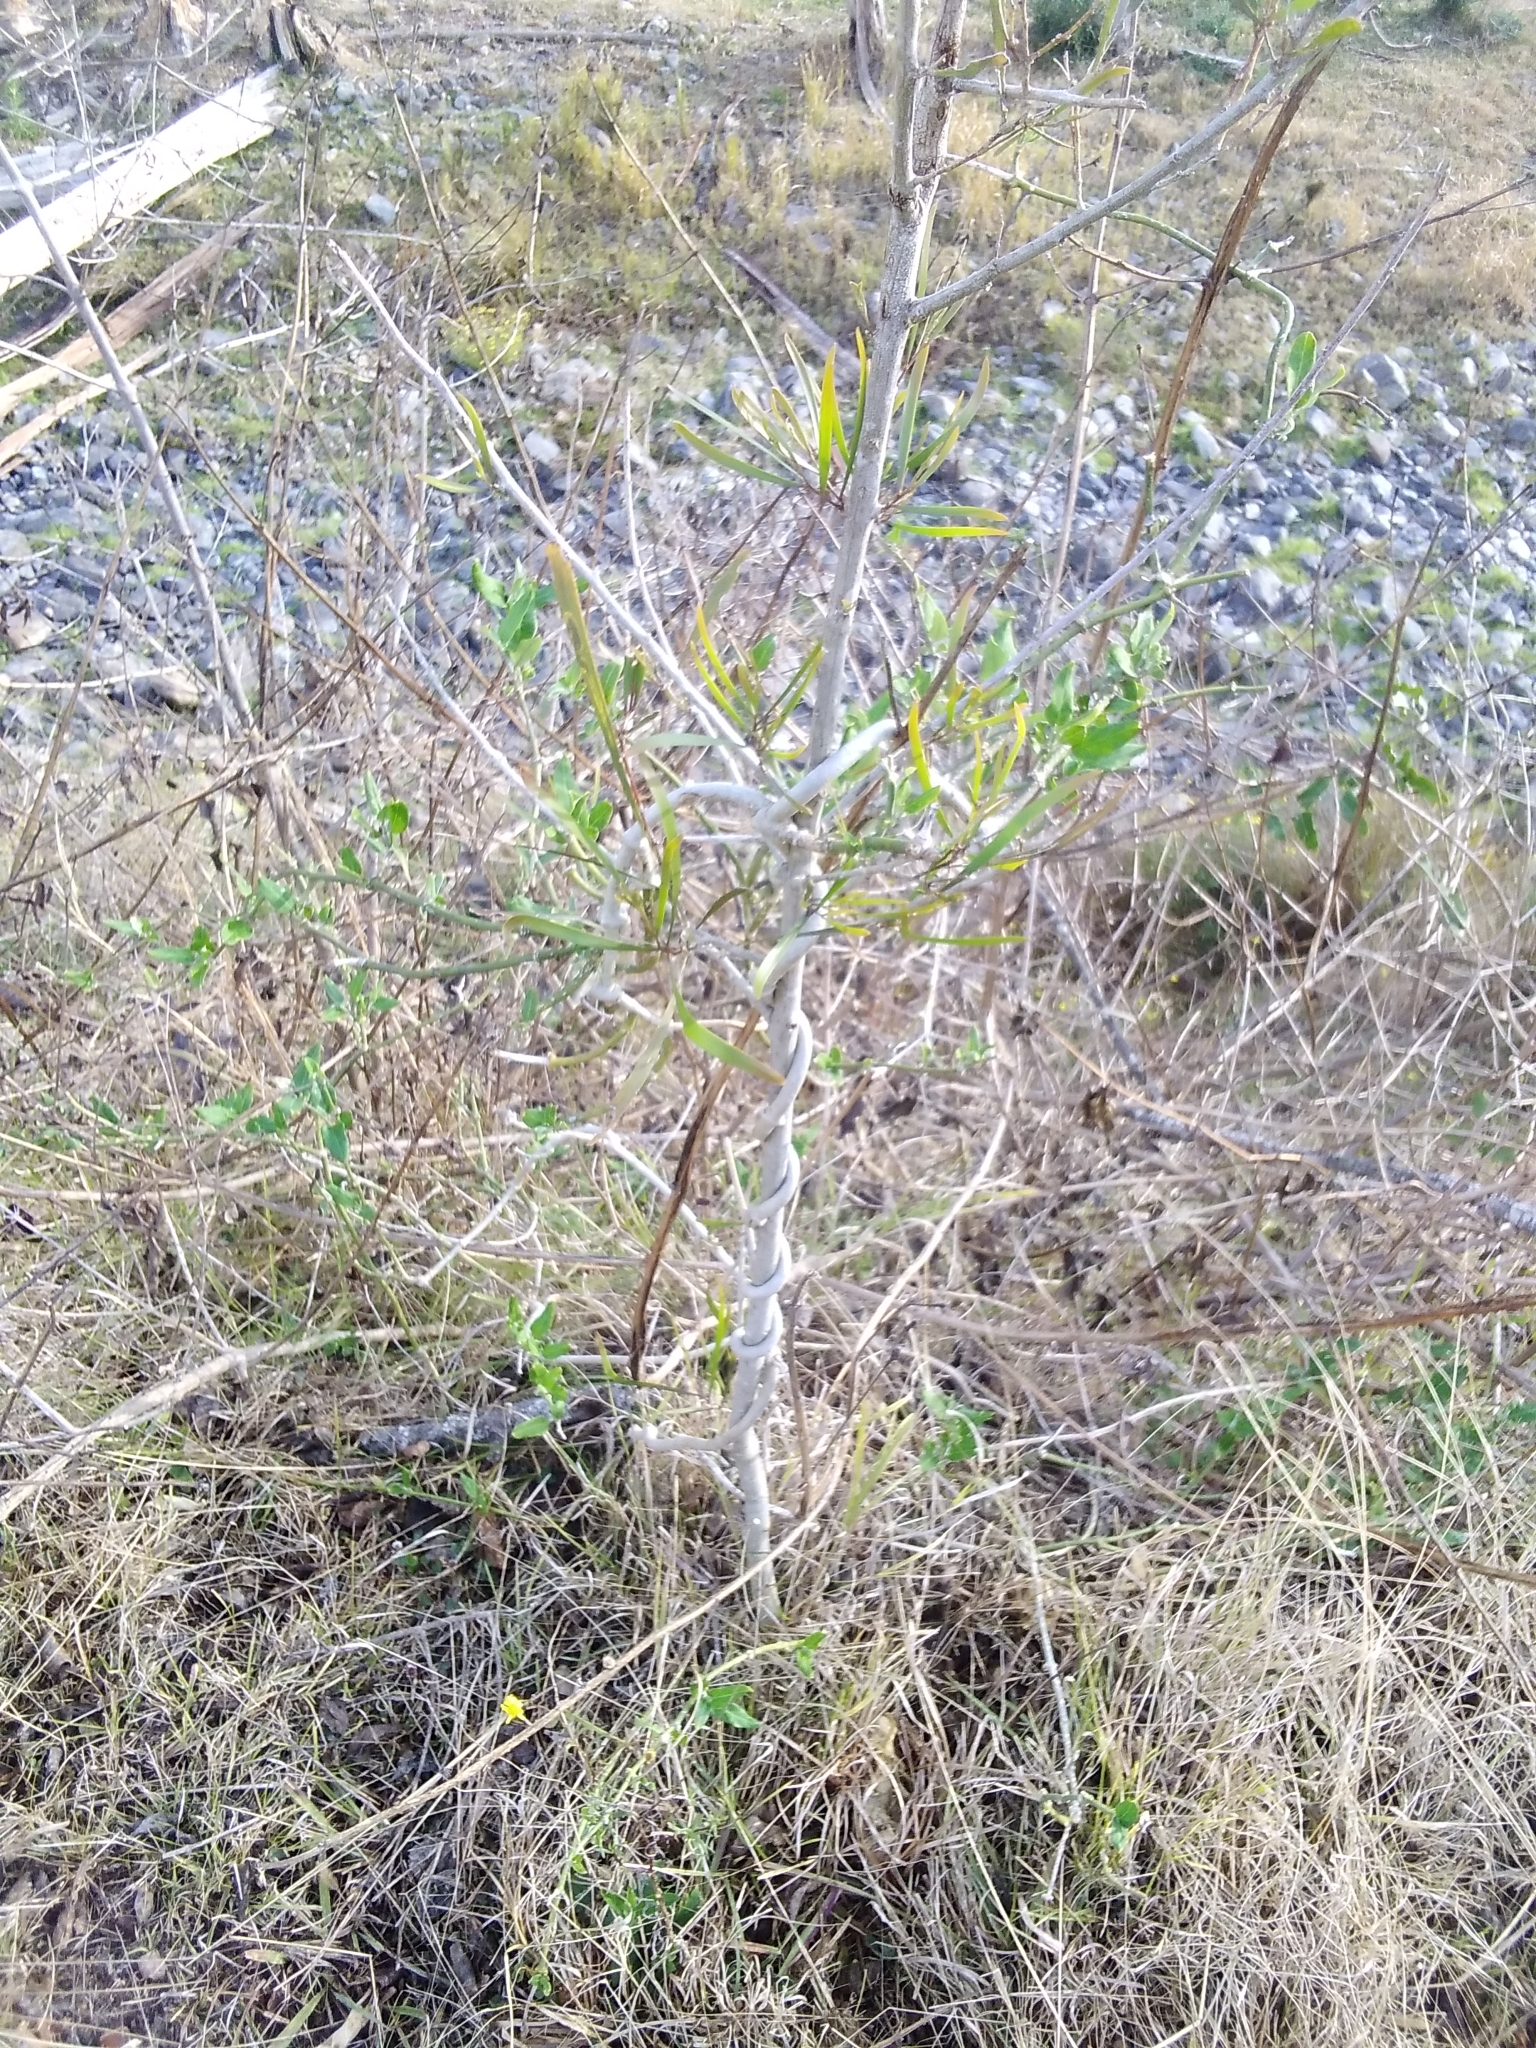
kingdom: Plantae
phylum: Tracheophyta
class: Magnoliopsida
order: Gentianales
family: Apocynaceae
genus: Araujia
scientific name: Araujia sericifera
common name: White bladderflower
